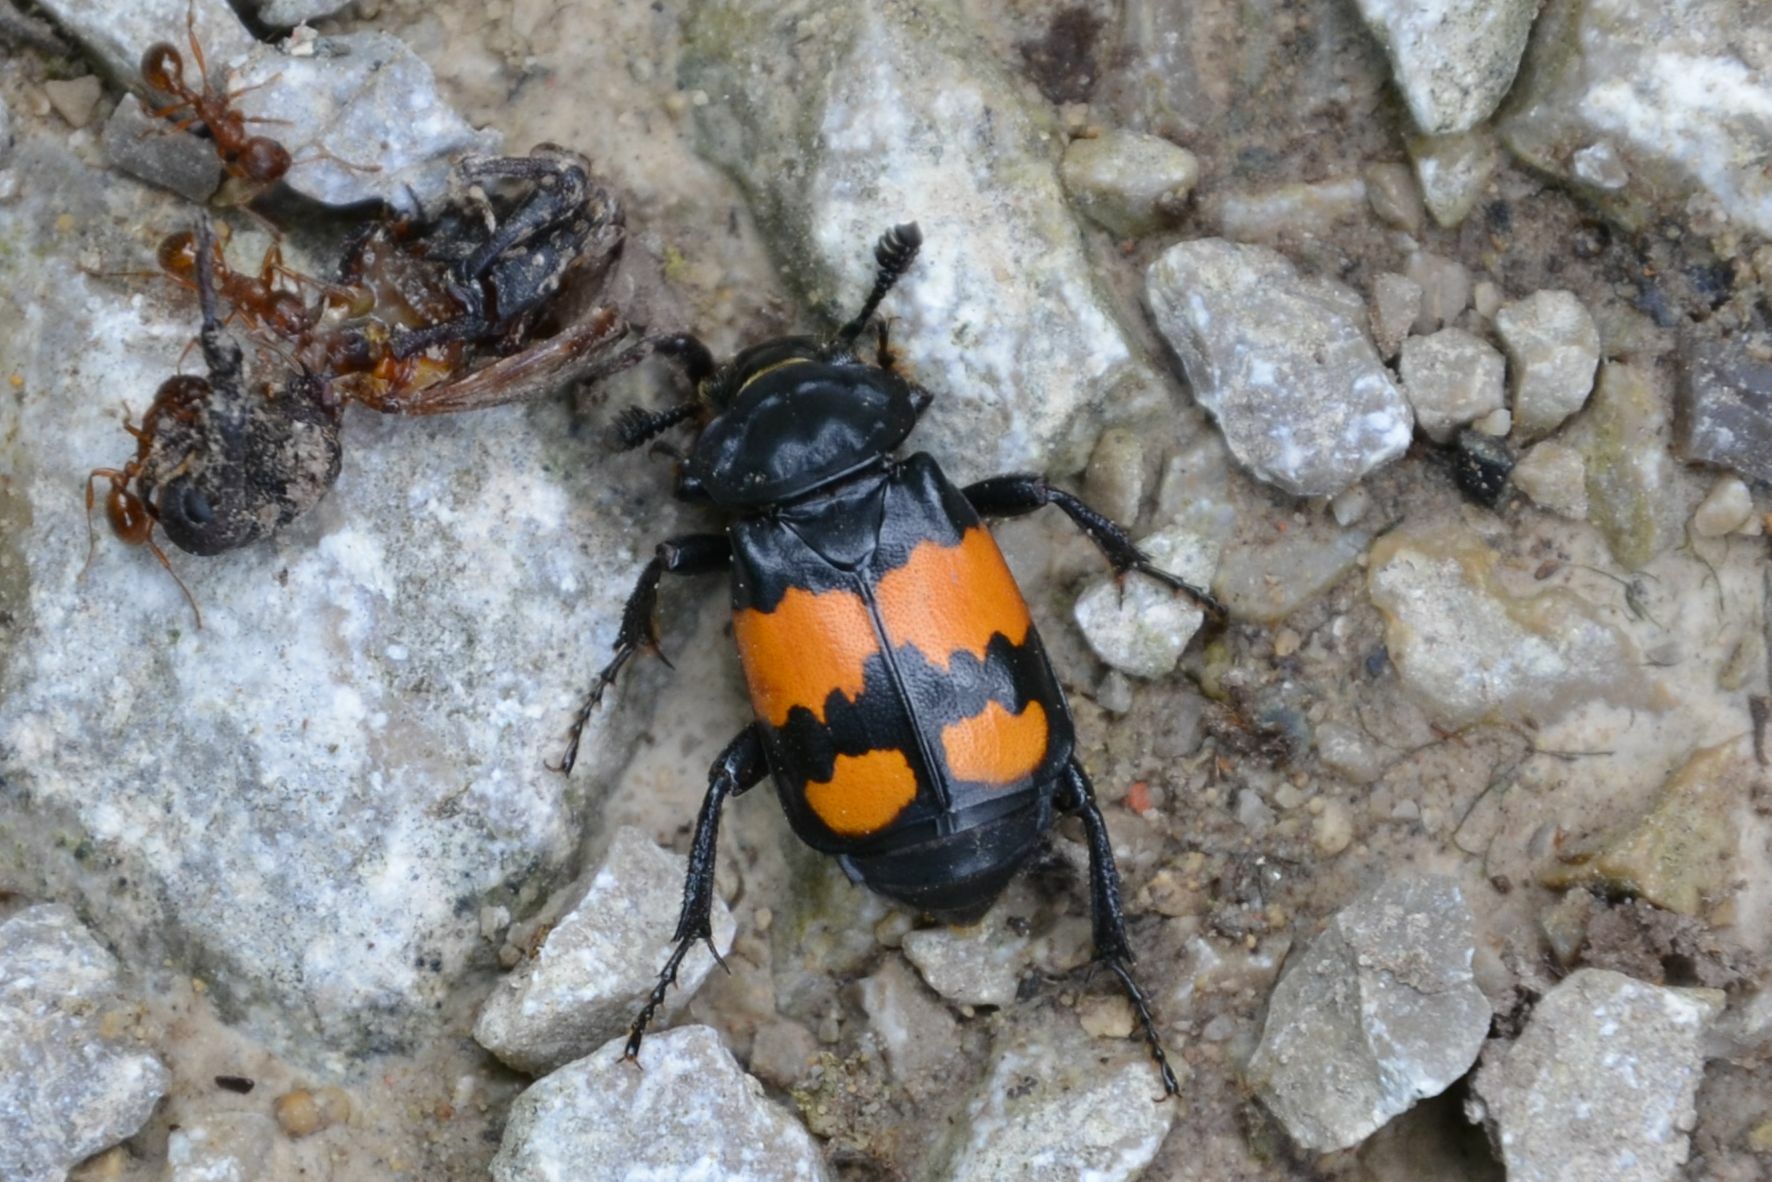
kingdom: Animalia
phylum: Arthropoda
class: Insecta
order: Coleoptera
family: Staphylinidae
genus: Nicrophorus
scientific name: Nicrophorus vespilloides
